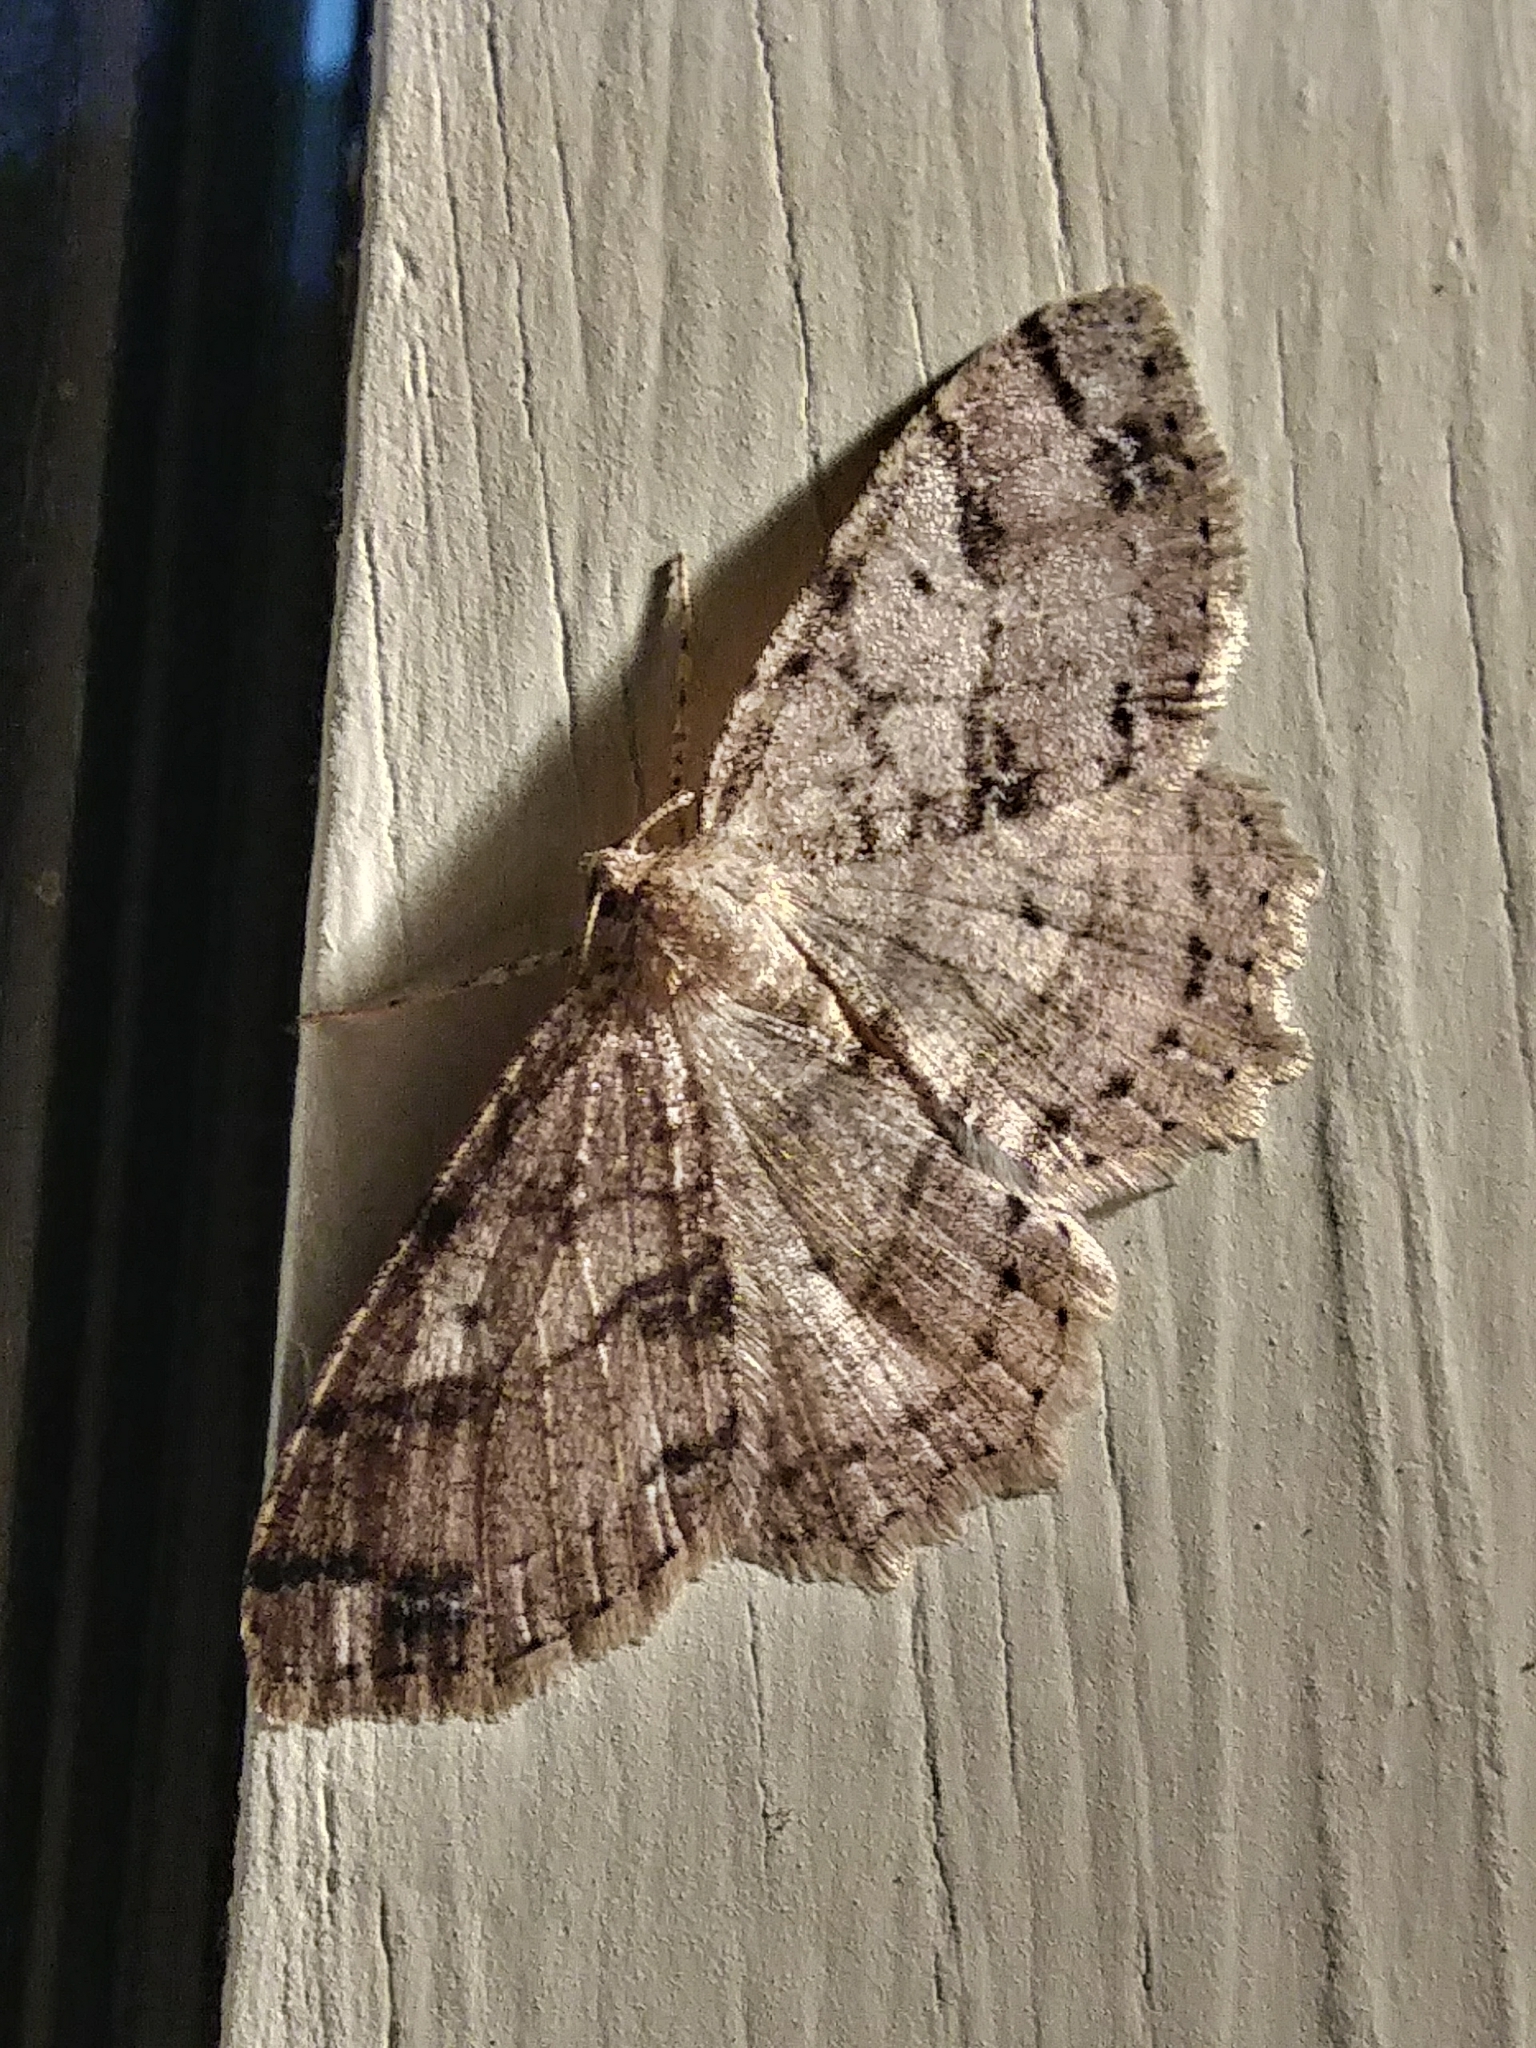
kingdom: Animalia
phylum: Arthropoda
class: Insecta
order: Lepidoptera
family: Geometridae
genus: Melanolophia
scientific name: Melanolophia signataria
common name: Signate melanolophia
